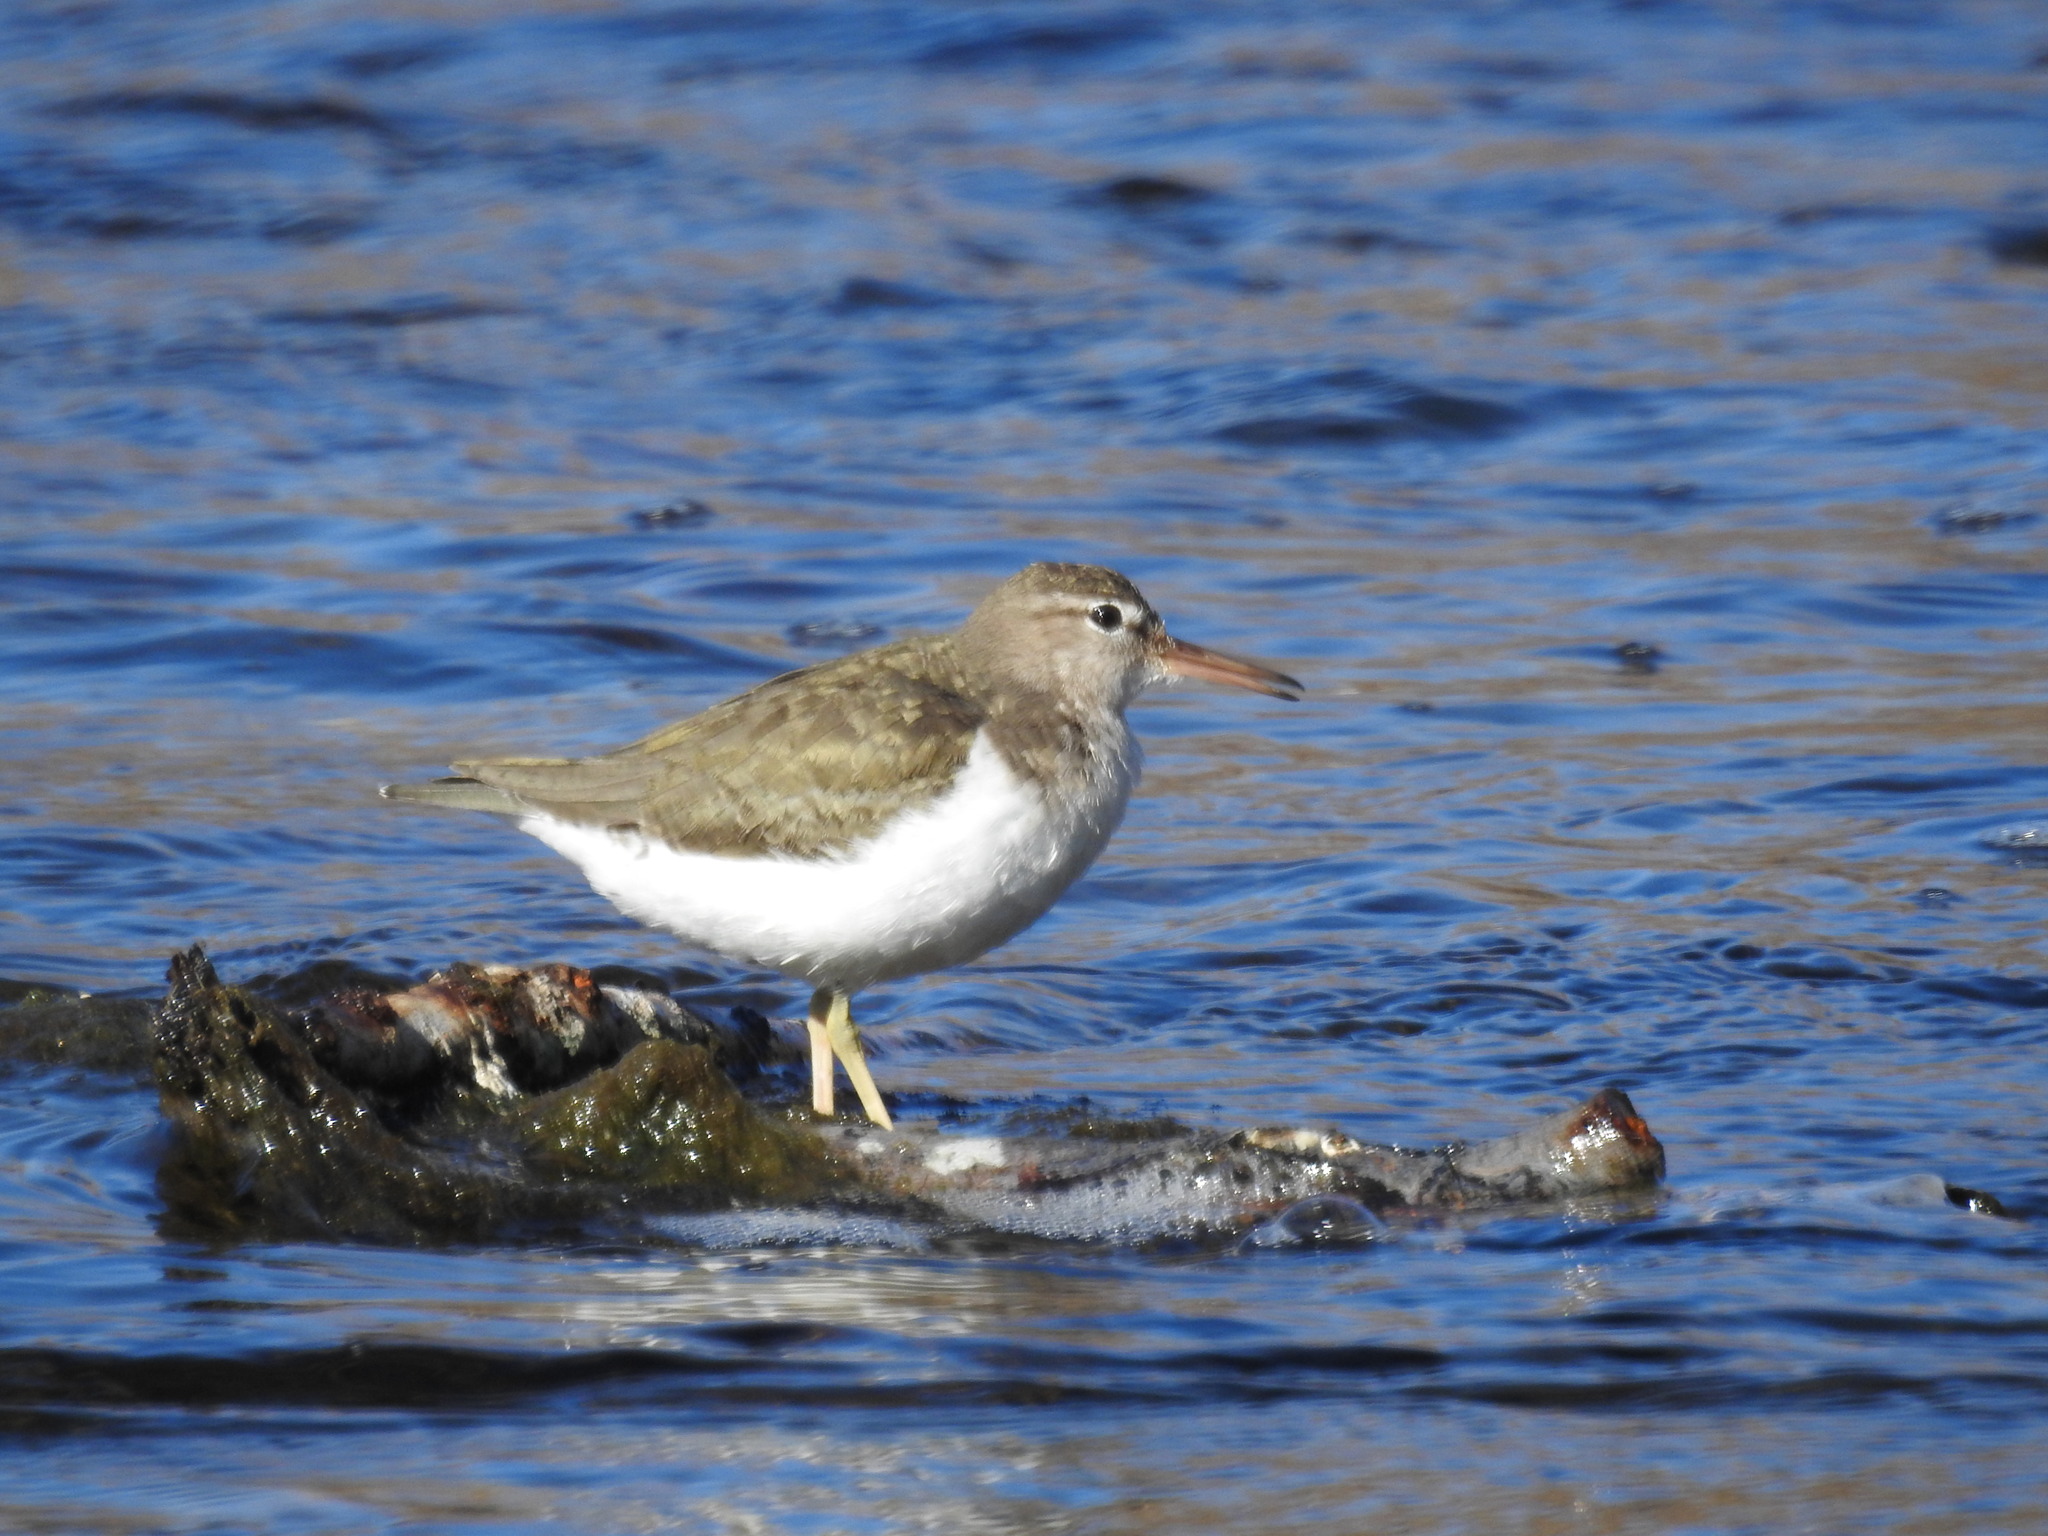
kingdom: Animalia
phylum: Chordata
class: Aves
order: Charadriiformes
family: Scolopacidae
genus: Actitis
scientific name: Actitis macularius
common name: Spotted sandpiper
